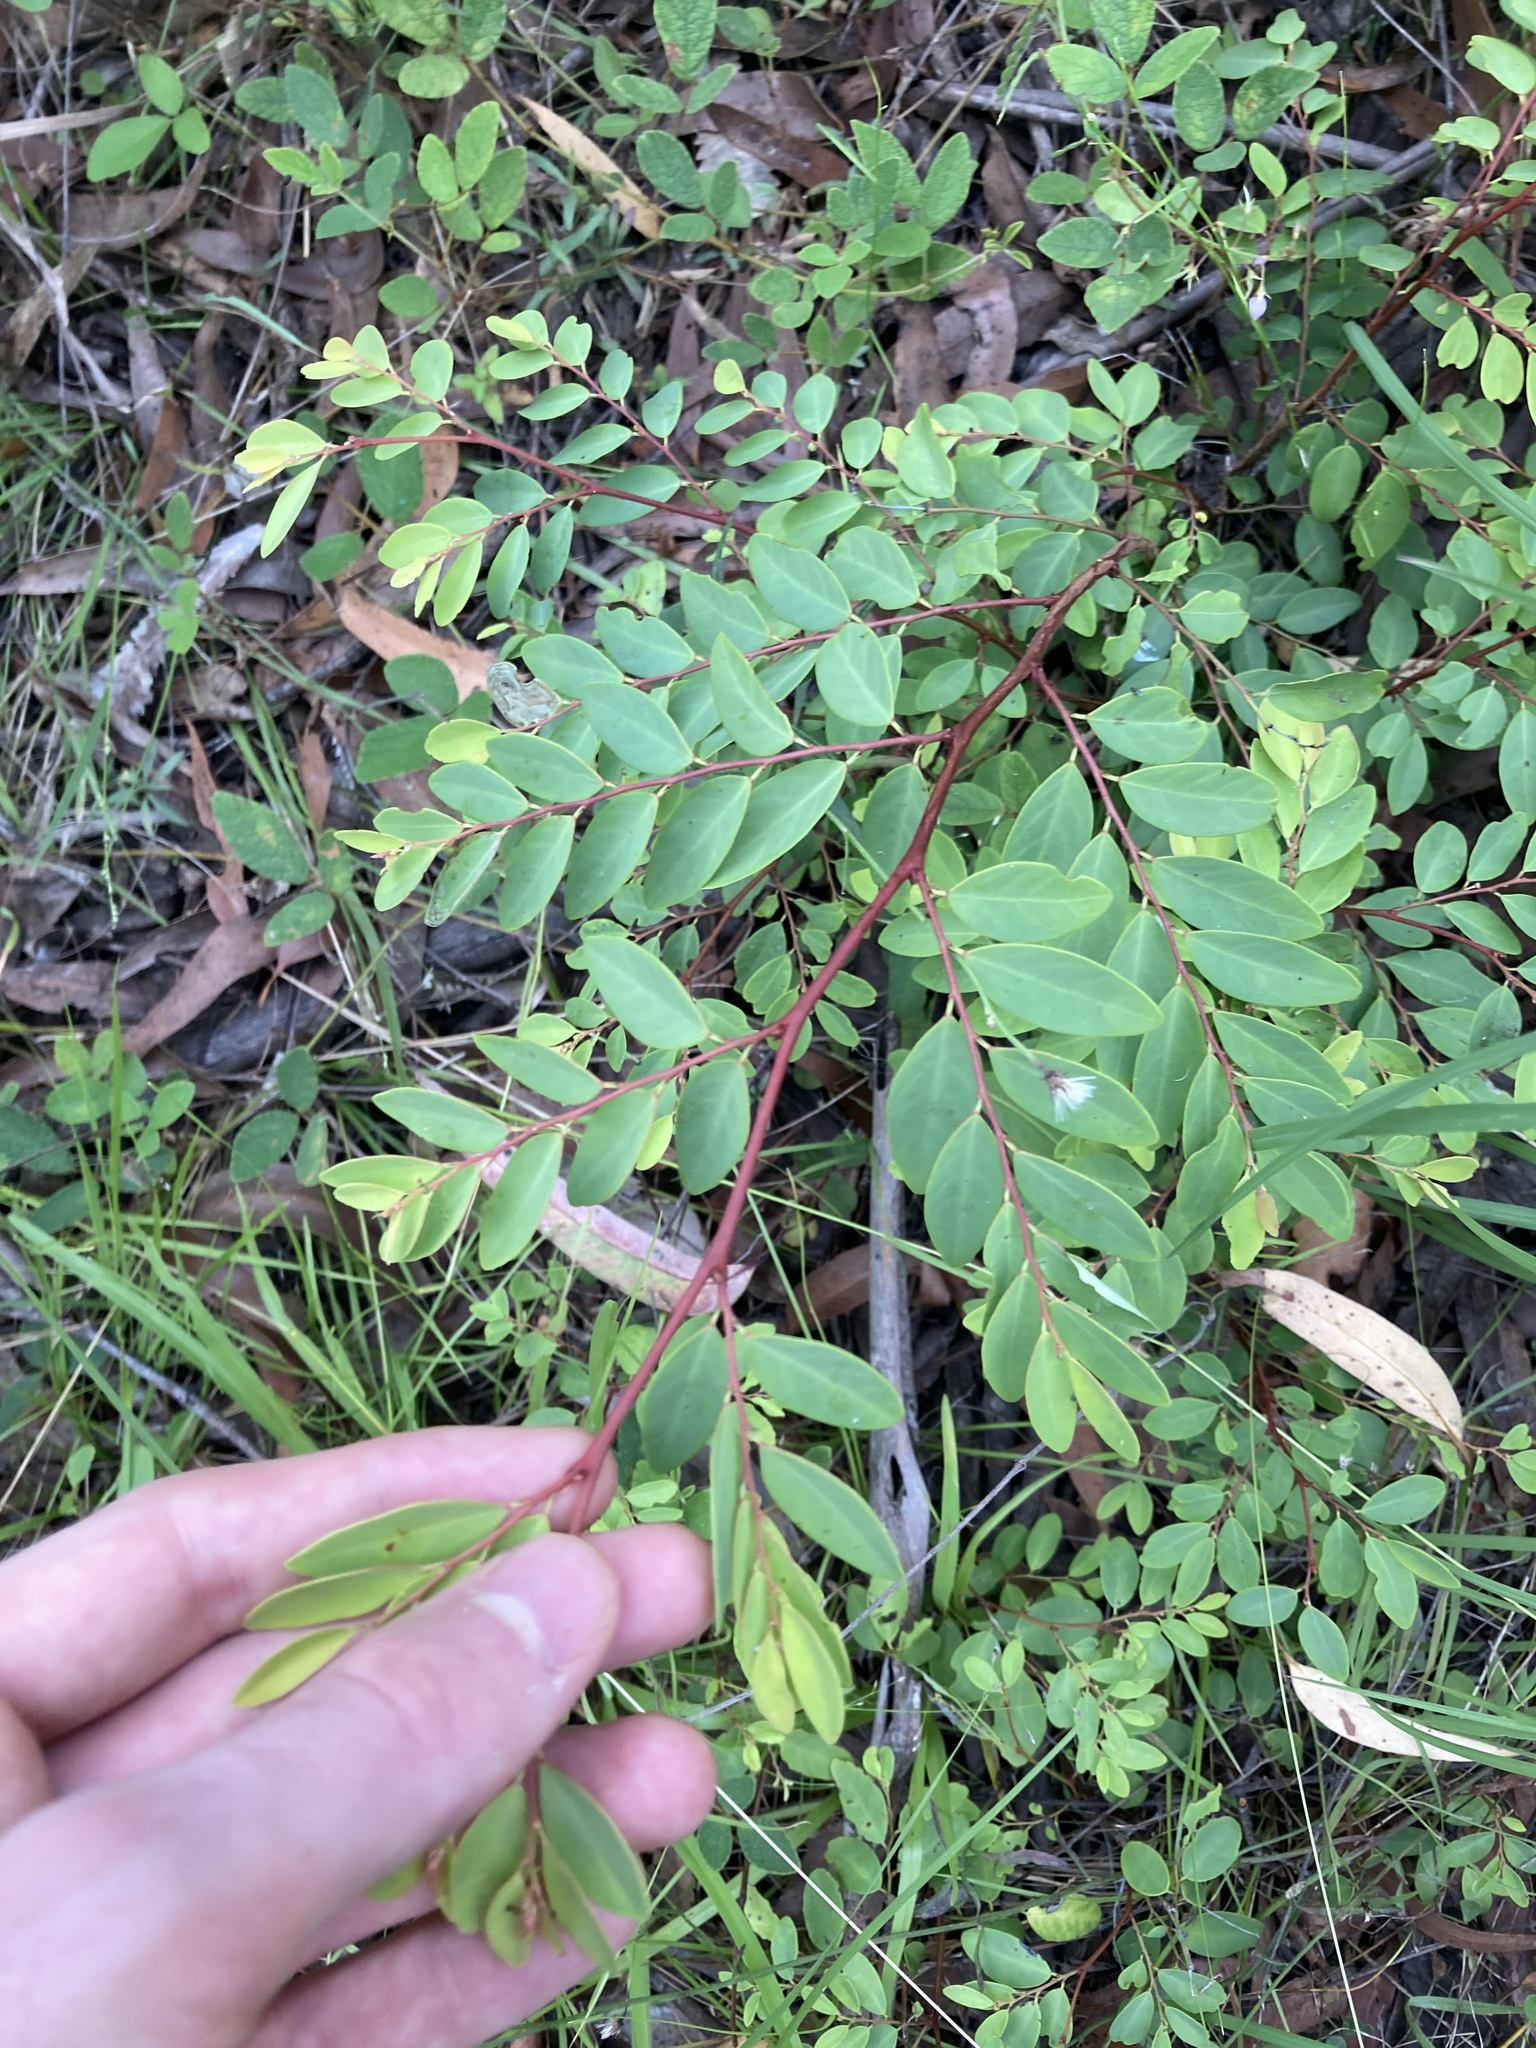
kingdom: Plantae
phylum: Tracheophyta
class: Magnoliopsida
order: Malpighiales
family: Phyllanthaceae
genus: Breynia
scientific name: Breynia oblongifolia
